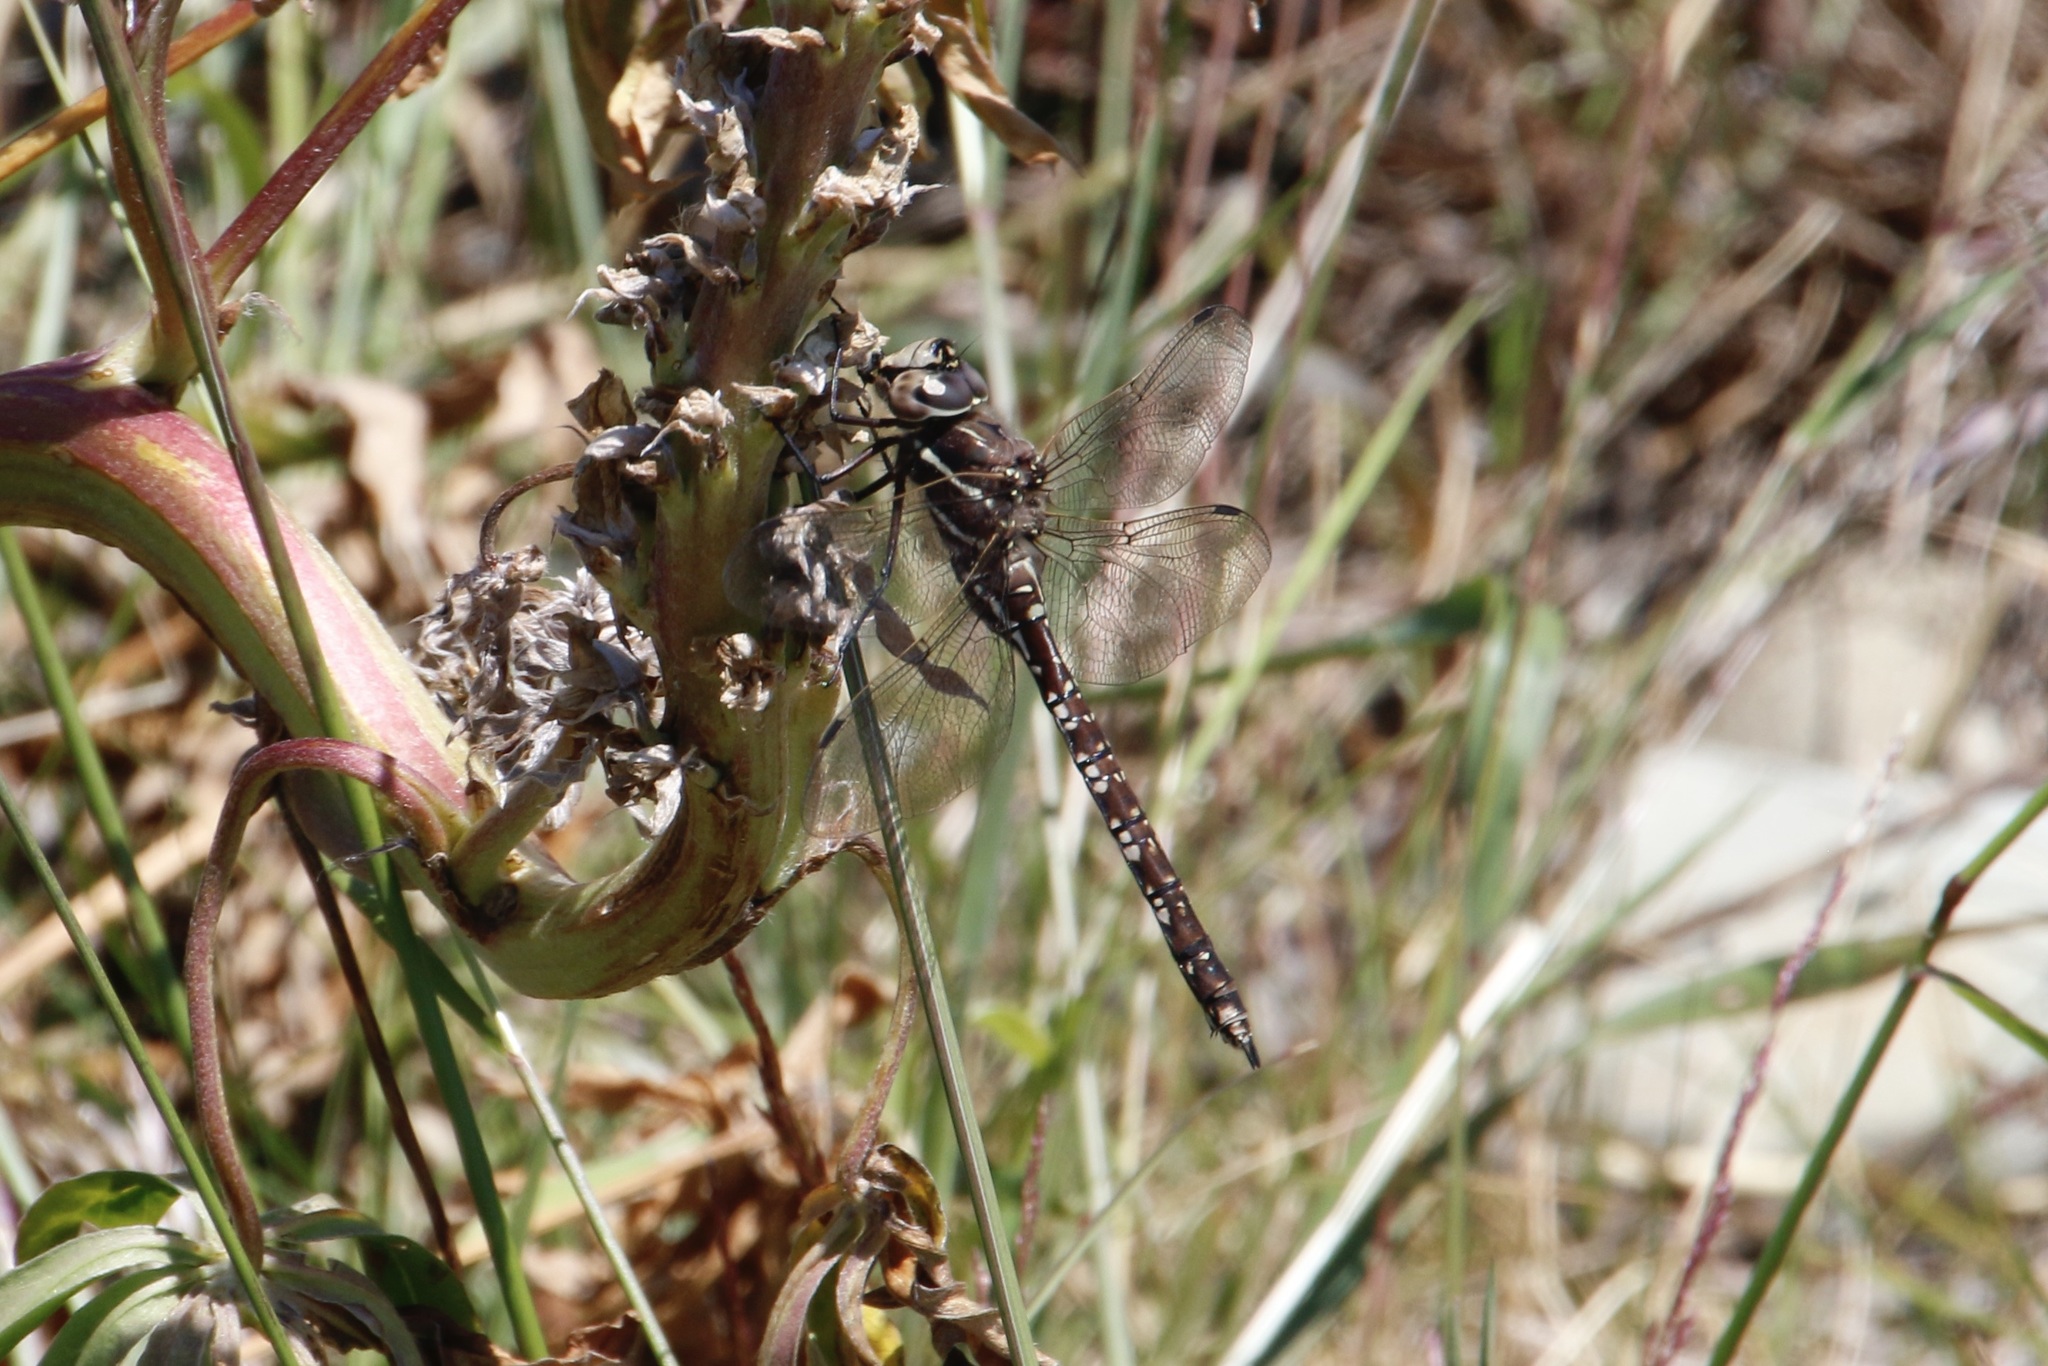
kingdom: Animalia
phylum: Arthropoda
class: Insecta
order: Odonata
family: Aeshnidae
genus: Aeshna
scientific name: Aeshna brevistyla
